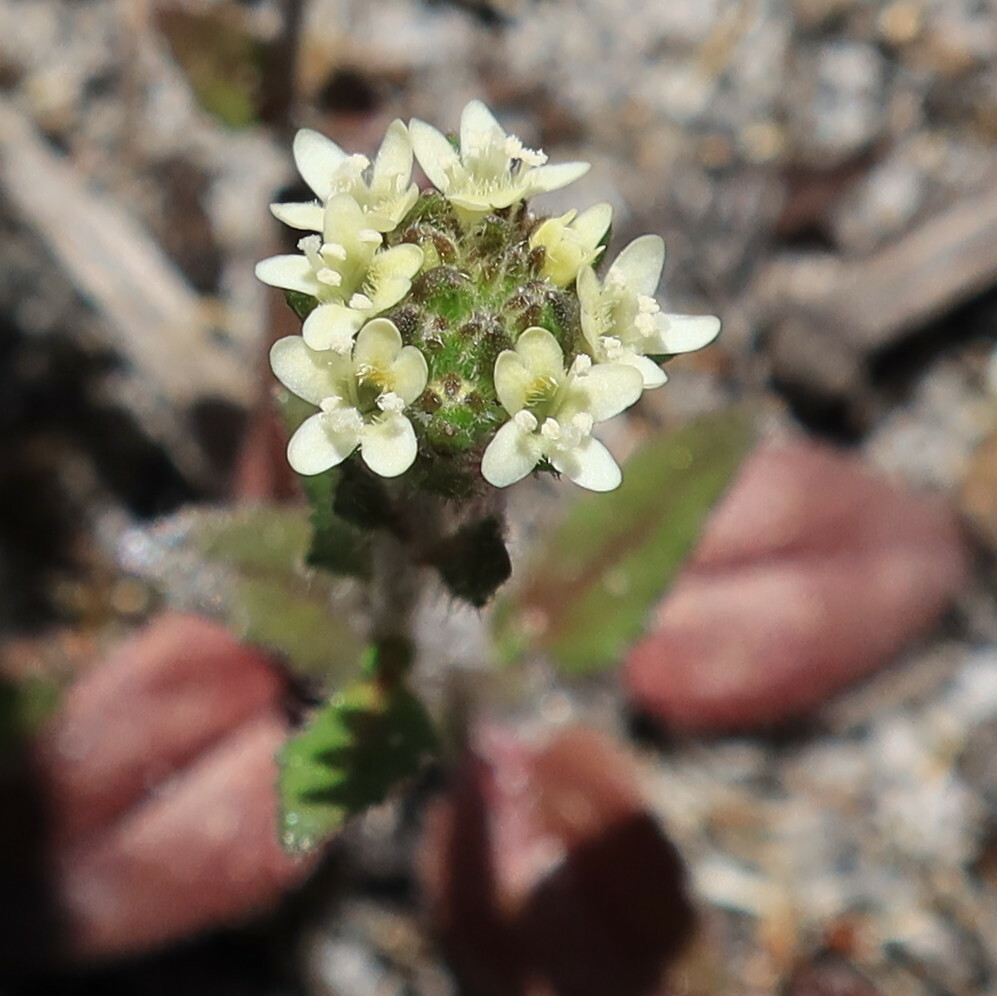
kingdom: Plantae
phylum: Tracheophyta
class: Magnoliopsida
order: Lamiales
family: Scrophulariaceae
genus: Phyllopodium
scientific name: Phyllopodium cordatum
